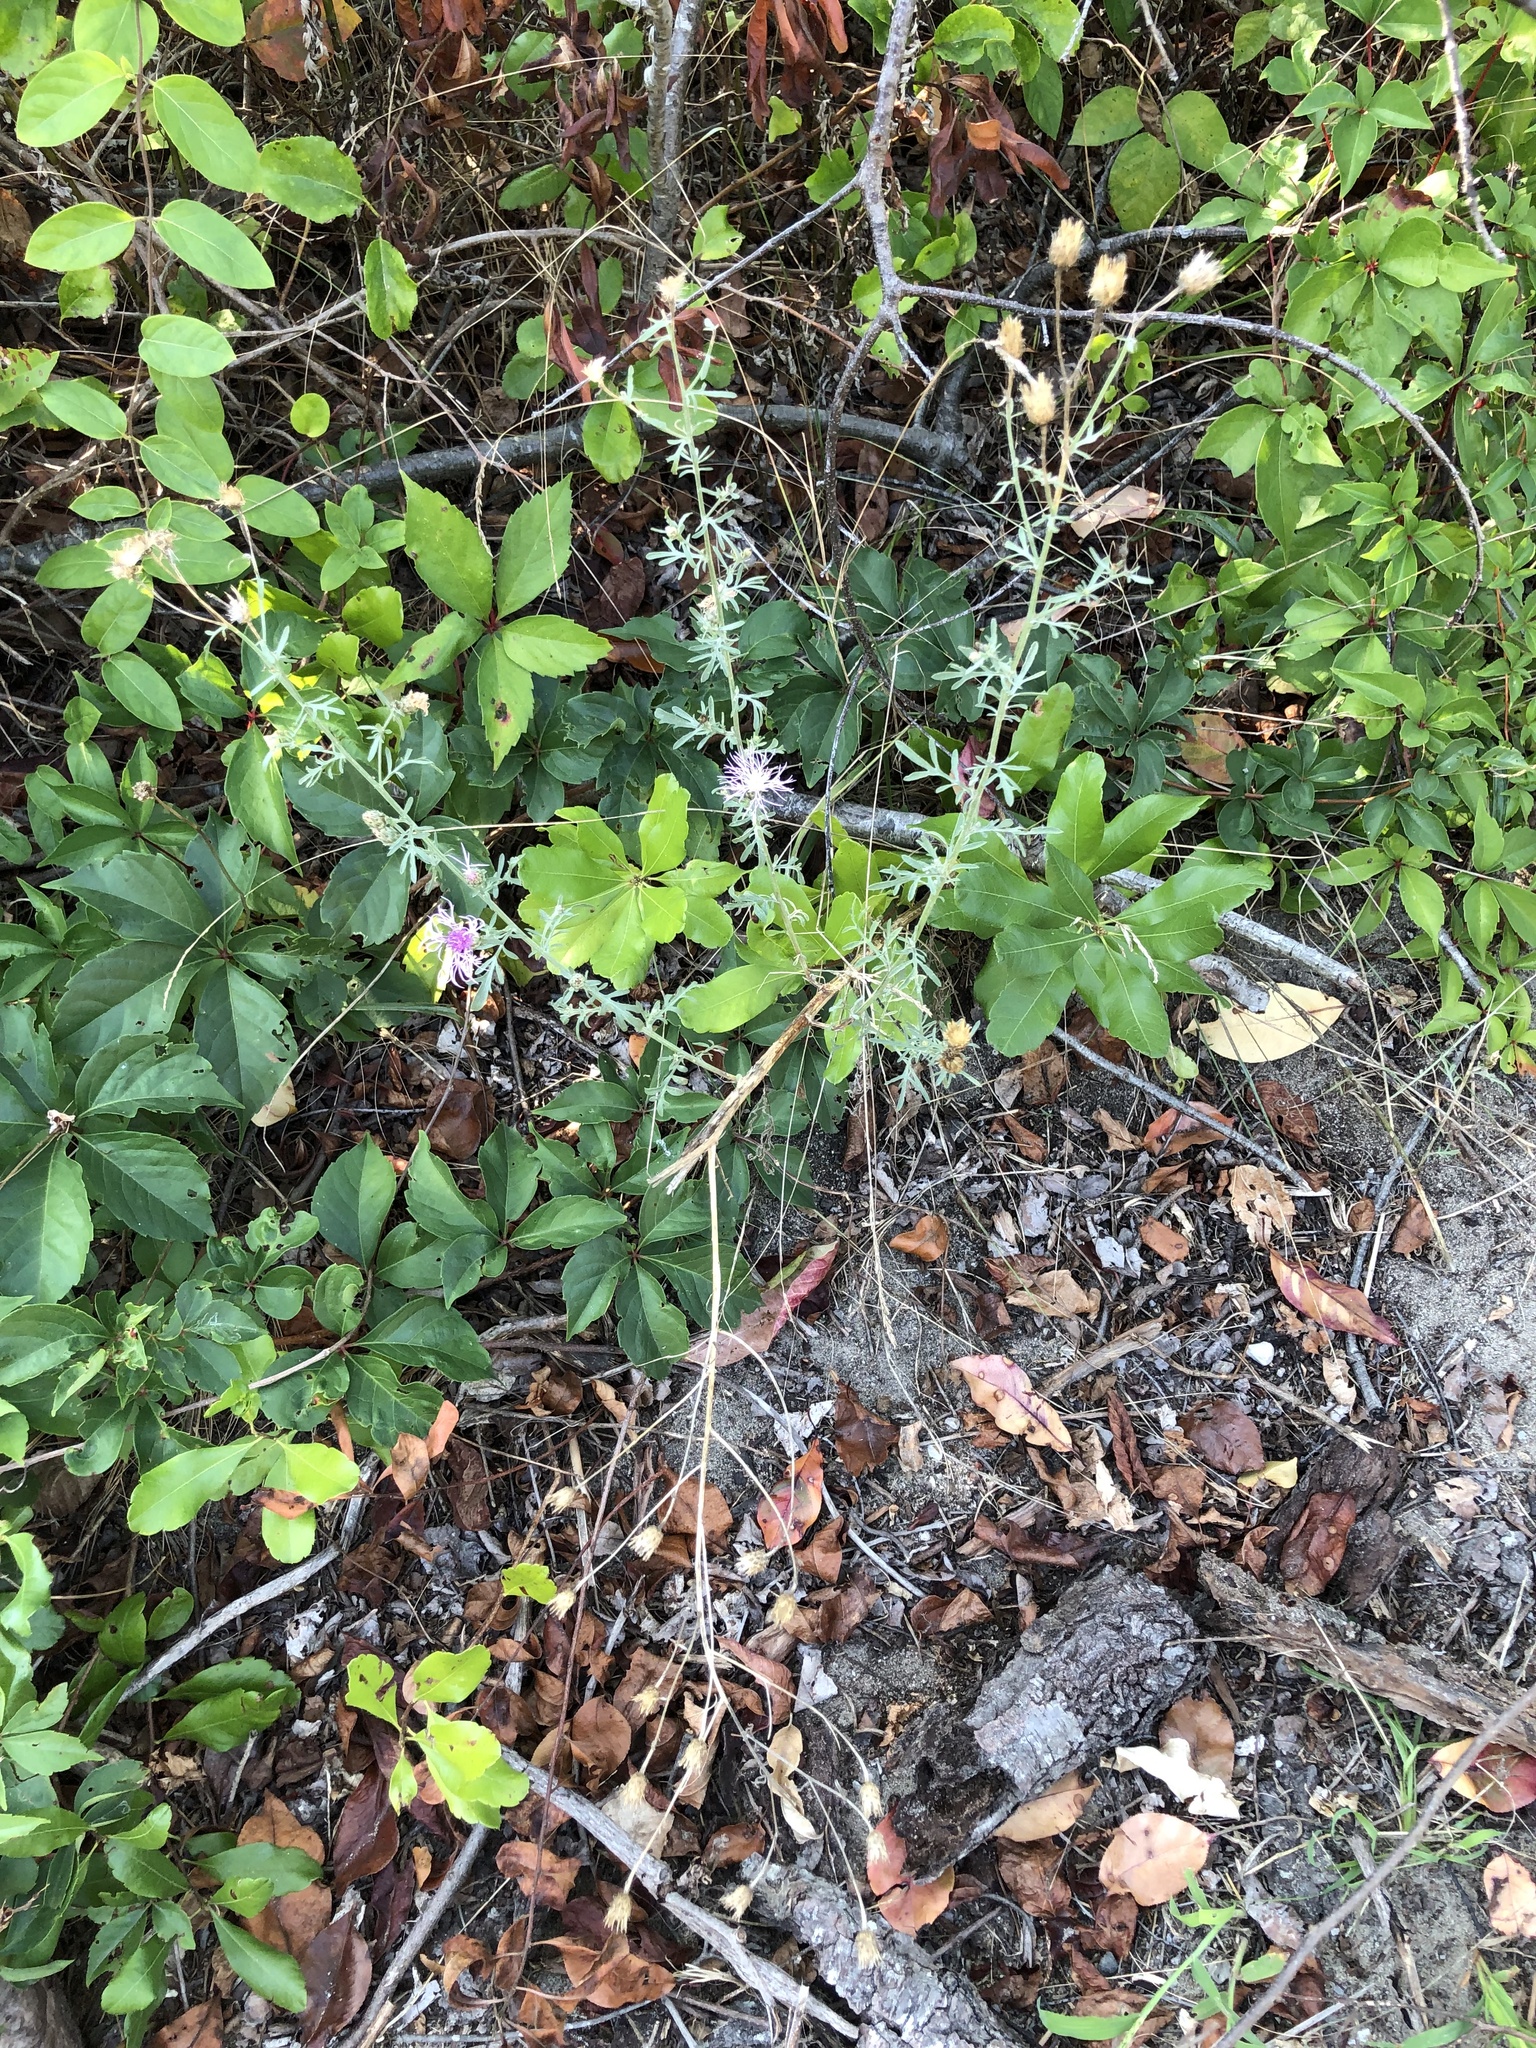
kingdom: Plantae
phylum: Tracheophyta
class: Magnoliopsida
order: Asterales
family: Asteraceae
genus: Centaurea
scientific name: Centaurea stoebe
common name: Spotted knapweed
